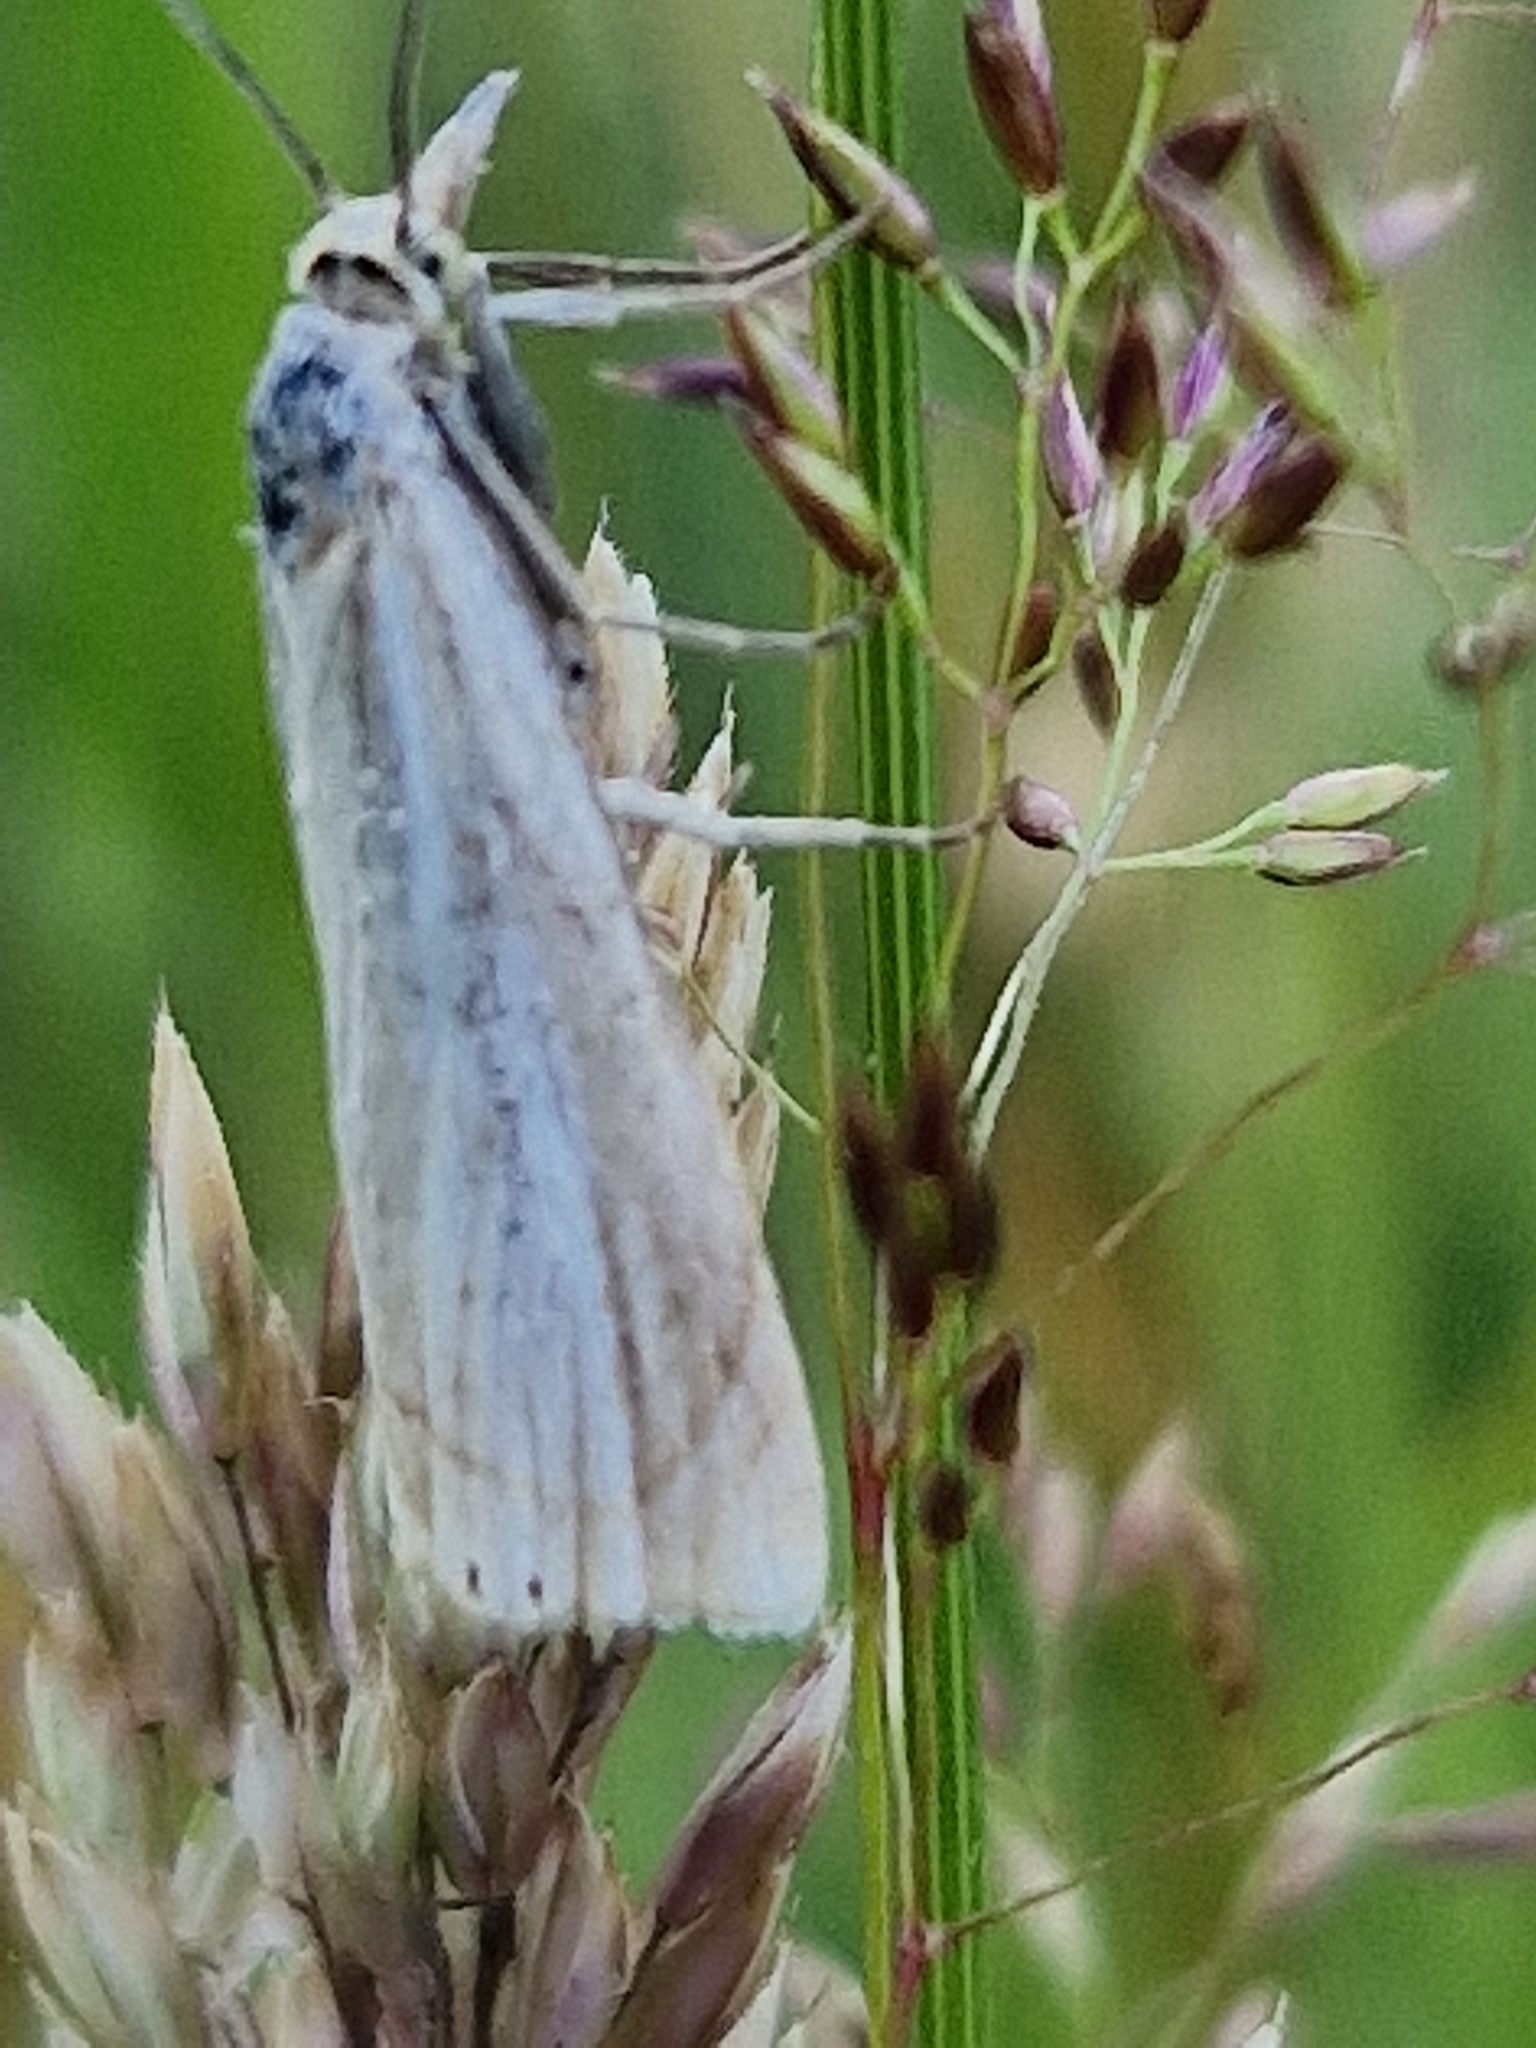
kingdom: Animalia
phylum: Arthropoda
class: Insecta
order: Lepidoptera
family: Crambidae
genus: Chrysoteuchia
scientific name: Chrysoteuchia culmella
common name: Garden grass-veneer
